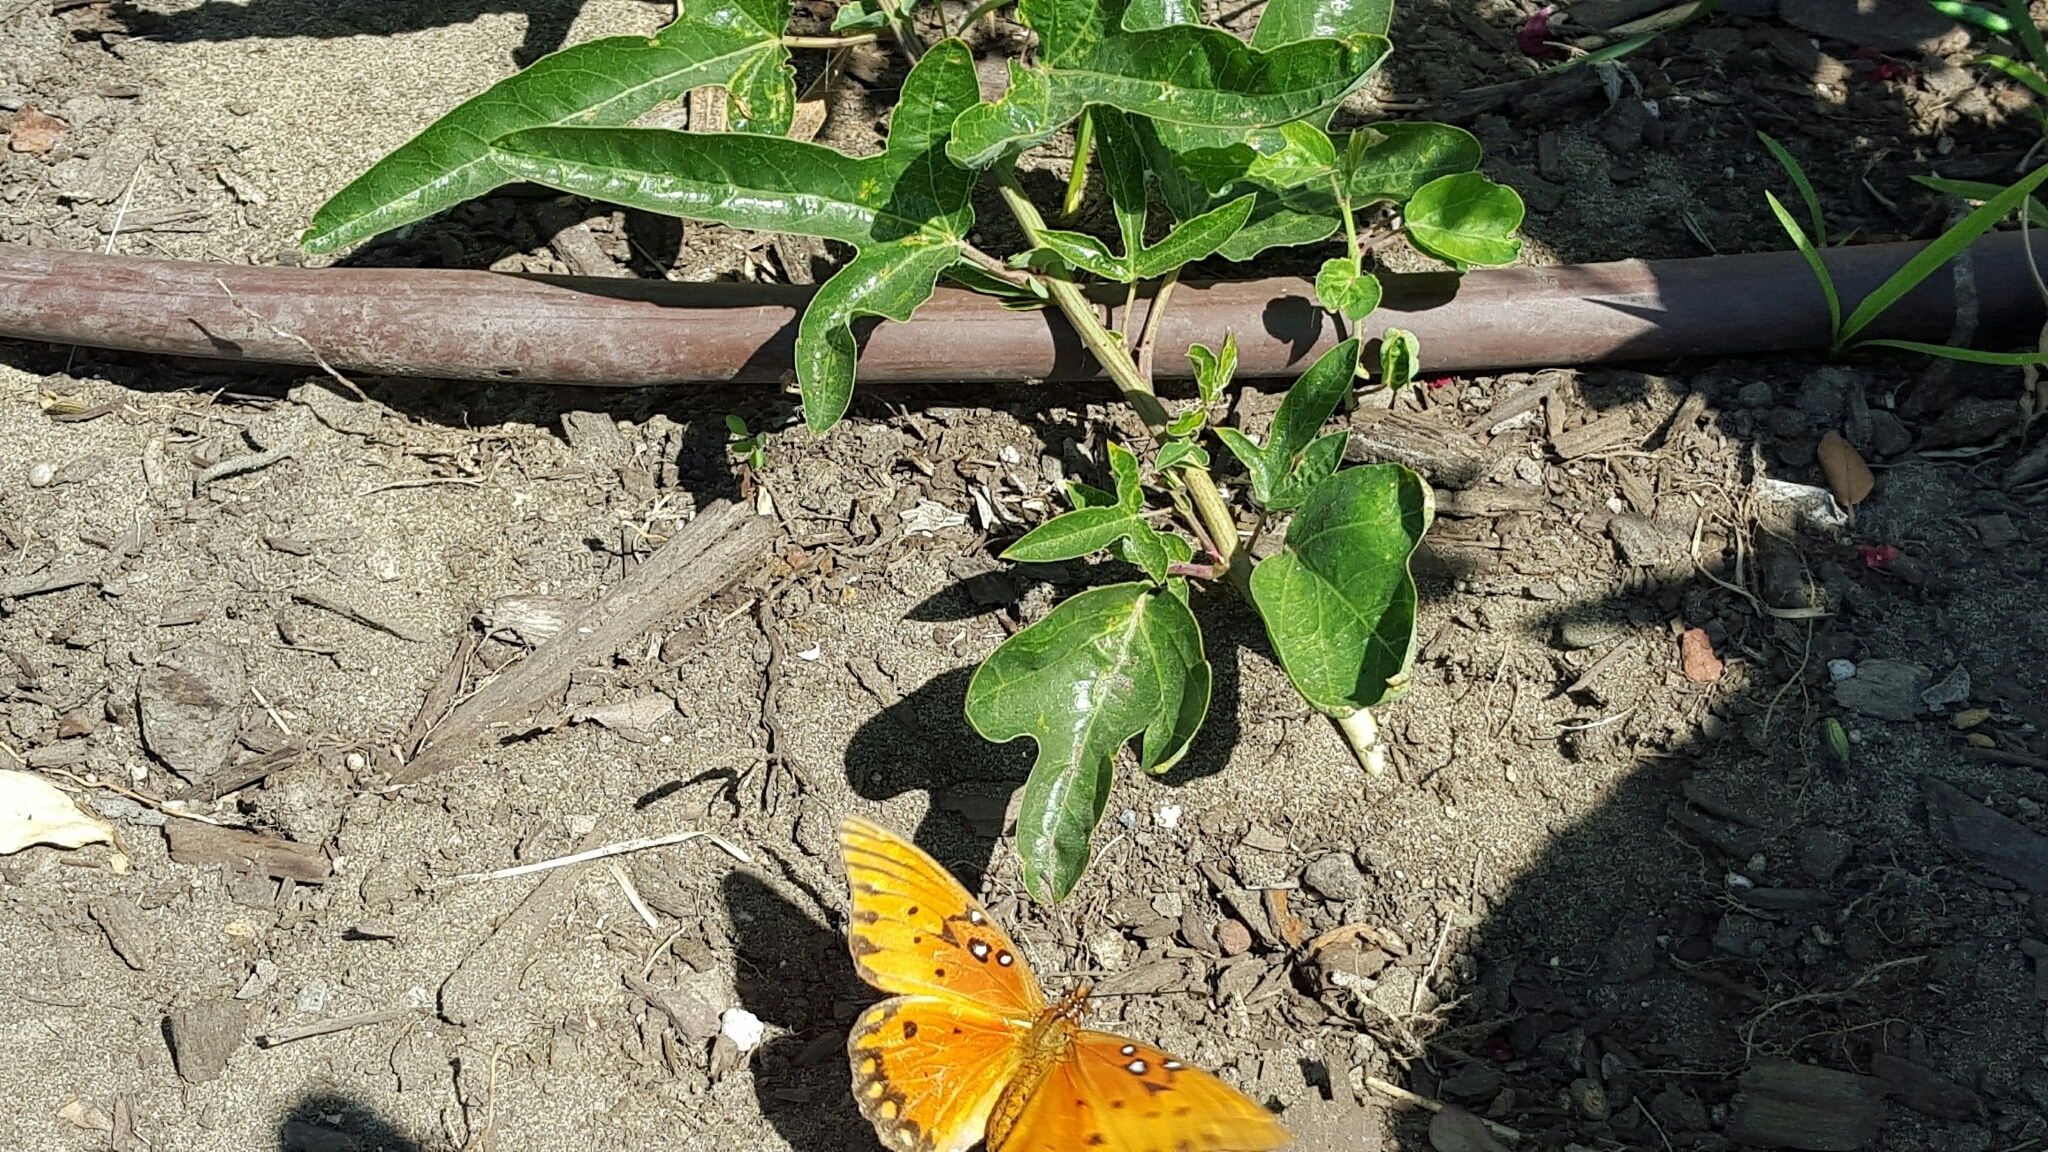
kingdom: Animalia
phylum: Arthropoda
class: Insecta
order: Lepidoptera
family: Nymphalidae
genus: Dione
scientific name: Dione vanillae
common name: Gulf fritillary
